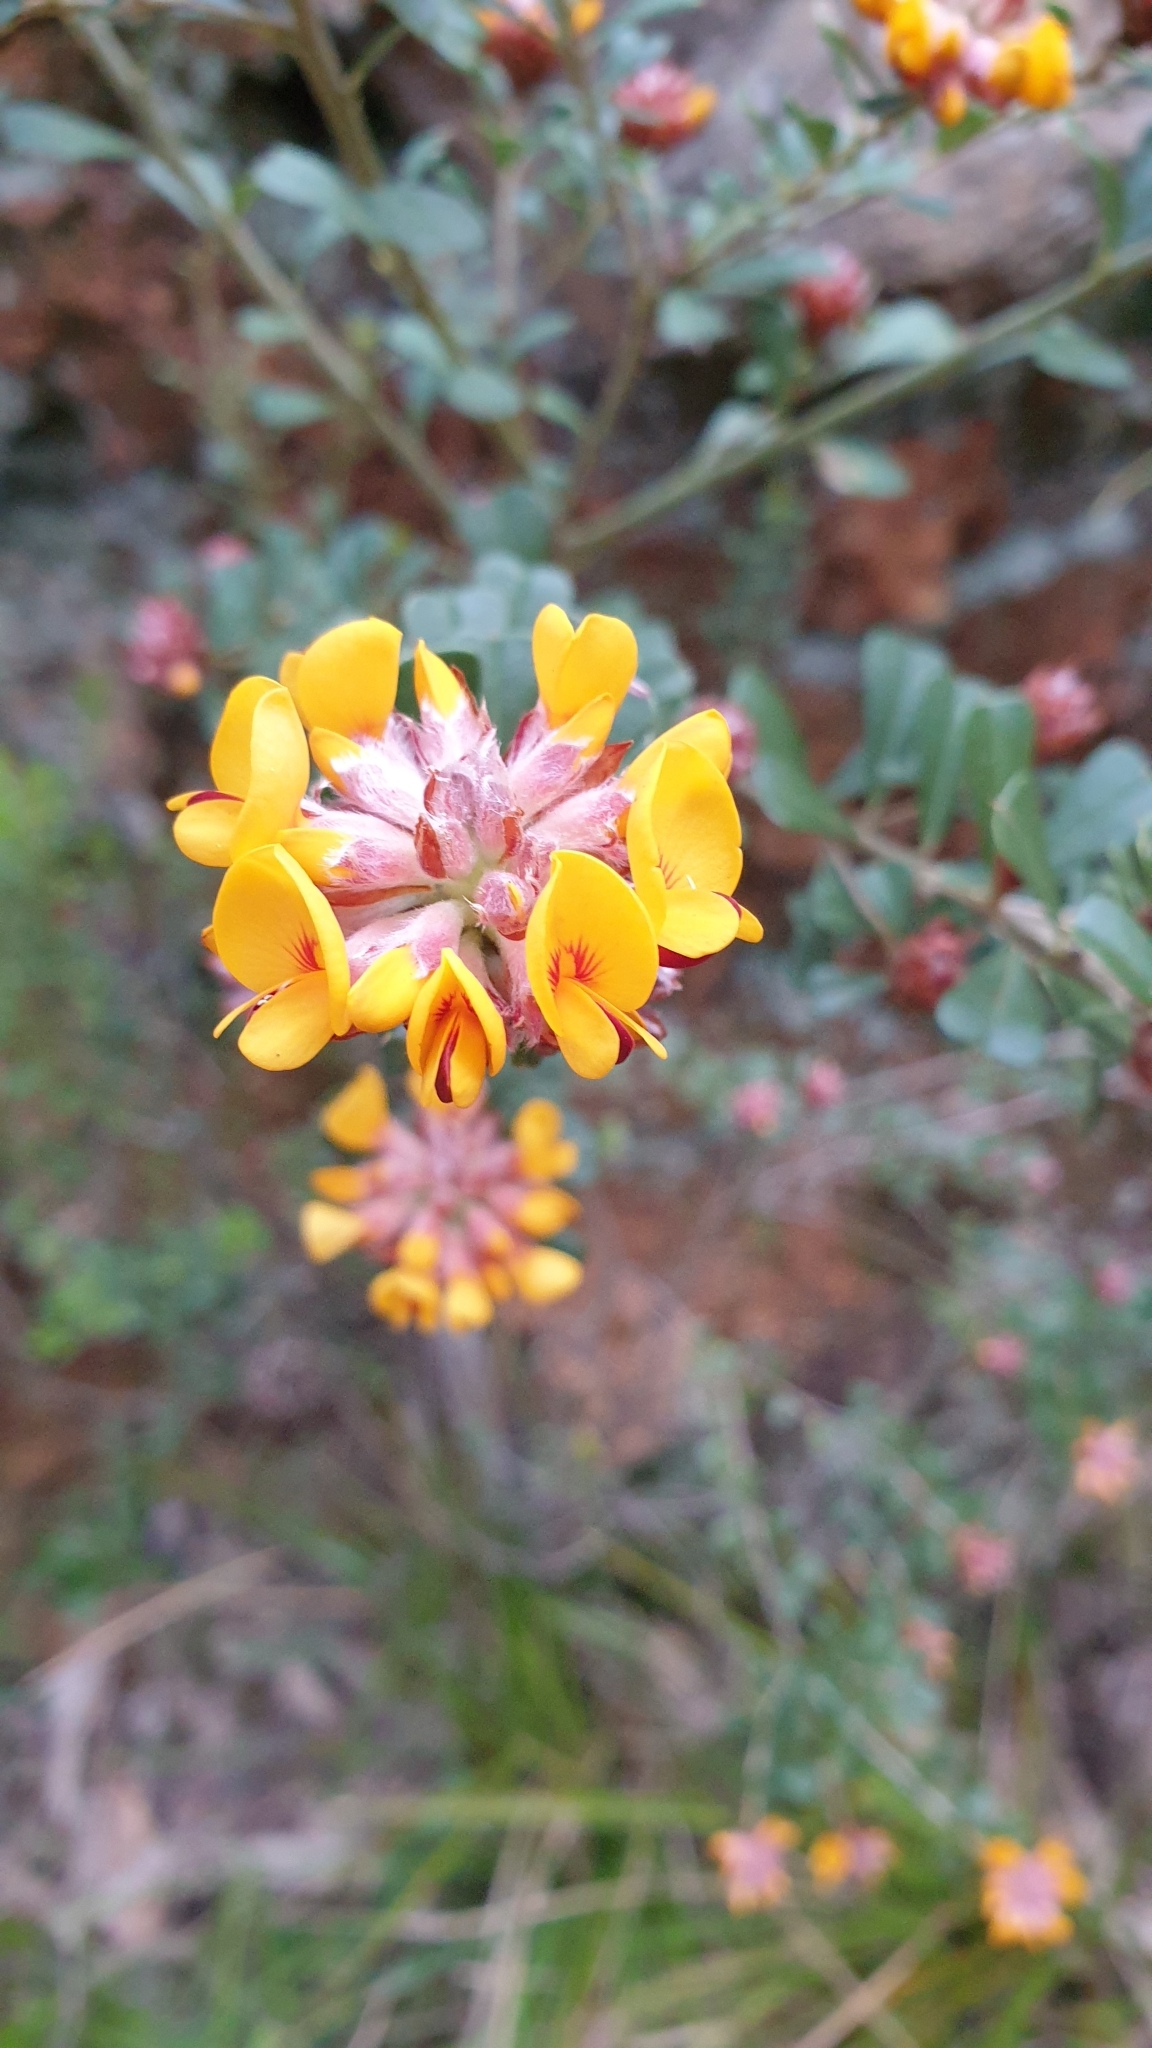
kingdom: Plantae
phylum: Tracheophyta
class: Magnoliopsida
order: Fabales
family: Fabaceae
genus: Pultenaea
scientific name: Pultenaea daphnoides
